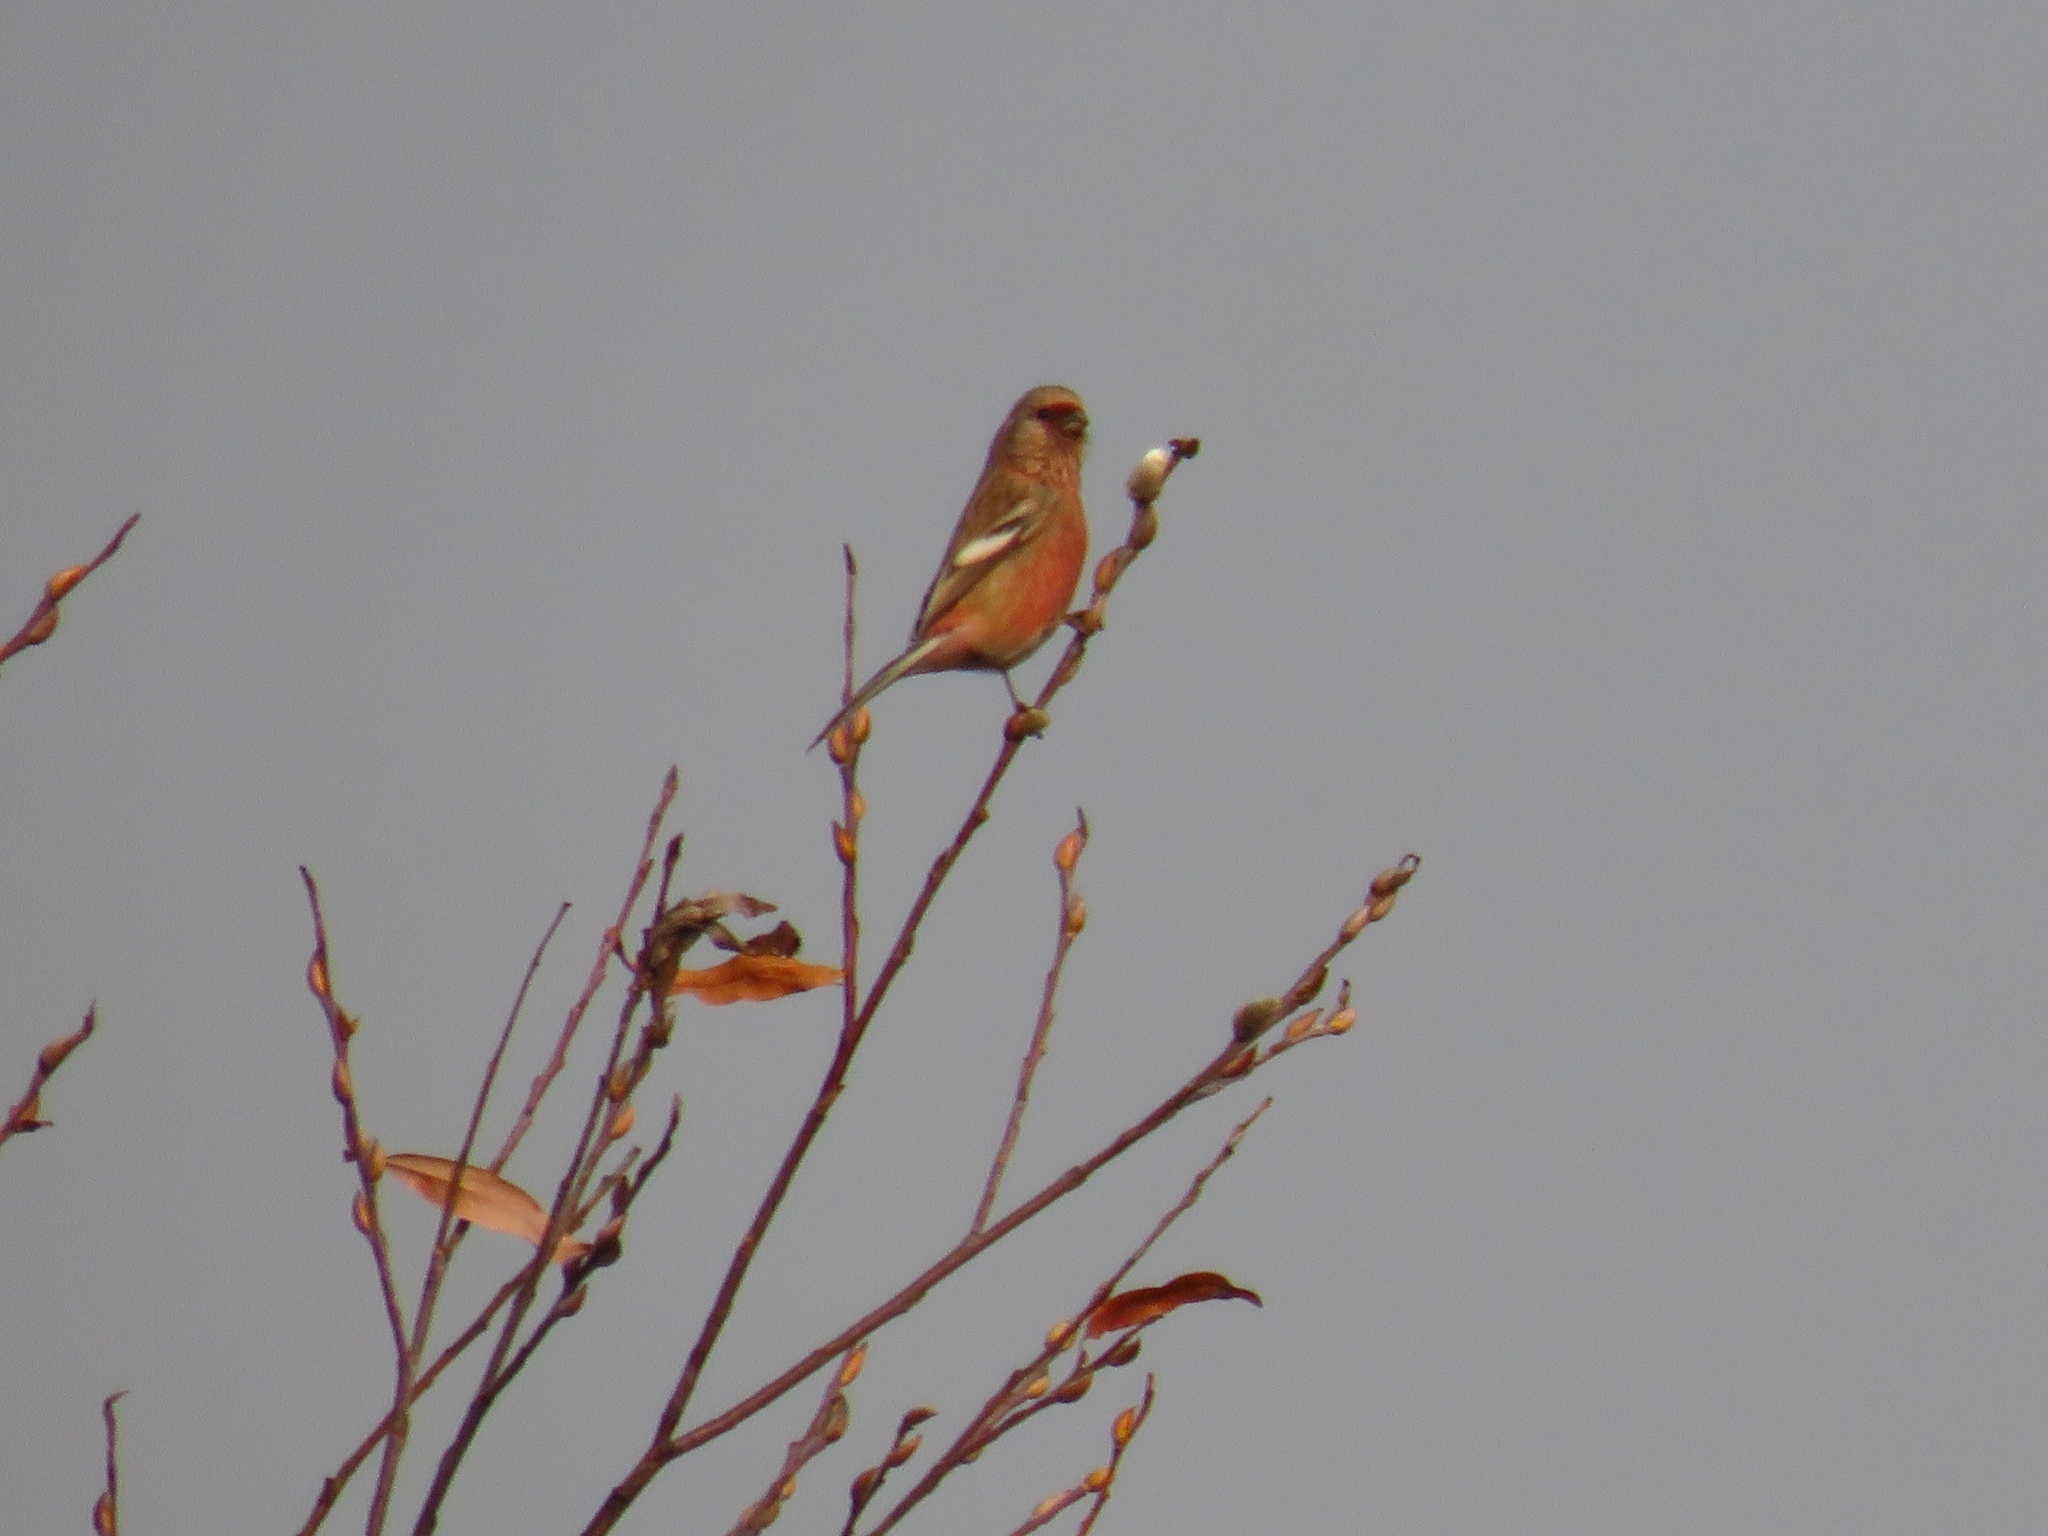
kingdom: Animalia
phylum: Chordata
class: Aves
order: Passeriformes
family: Fringillidae
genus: Carpodacus
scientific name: Carpodacus sibiricus
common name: Long-tailed rosefinch
